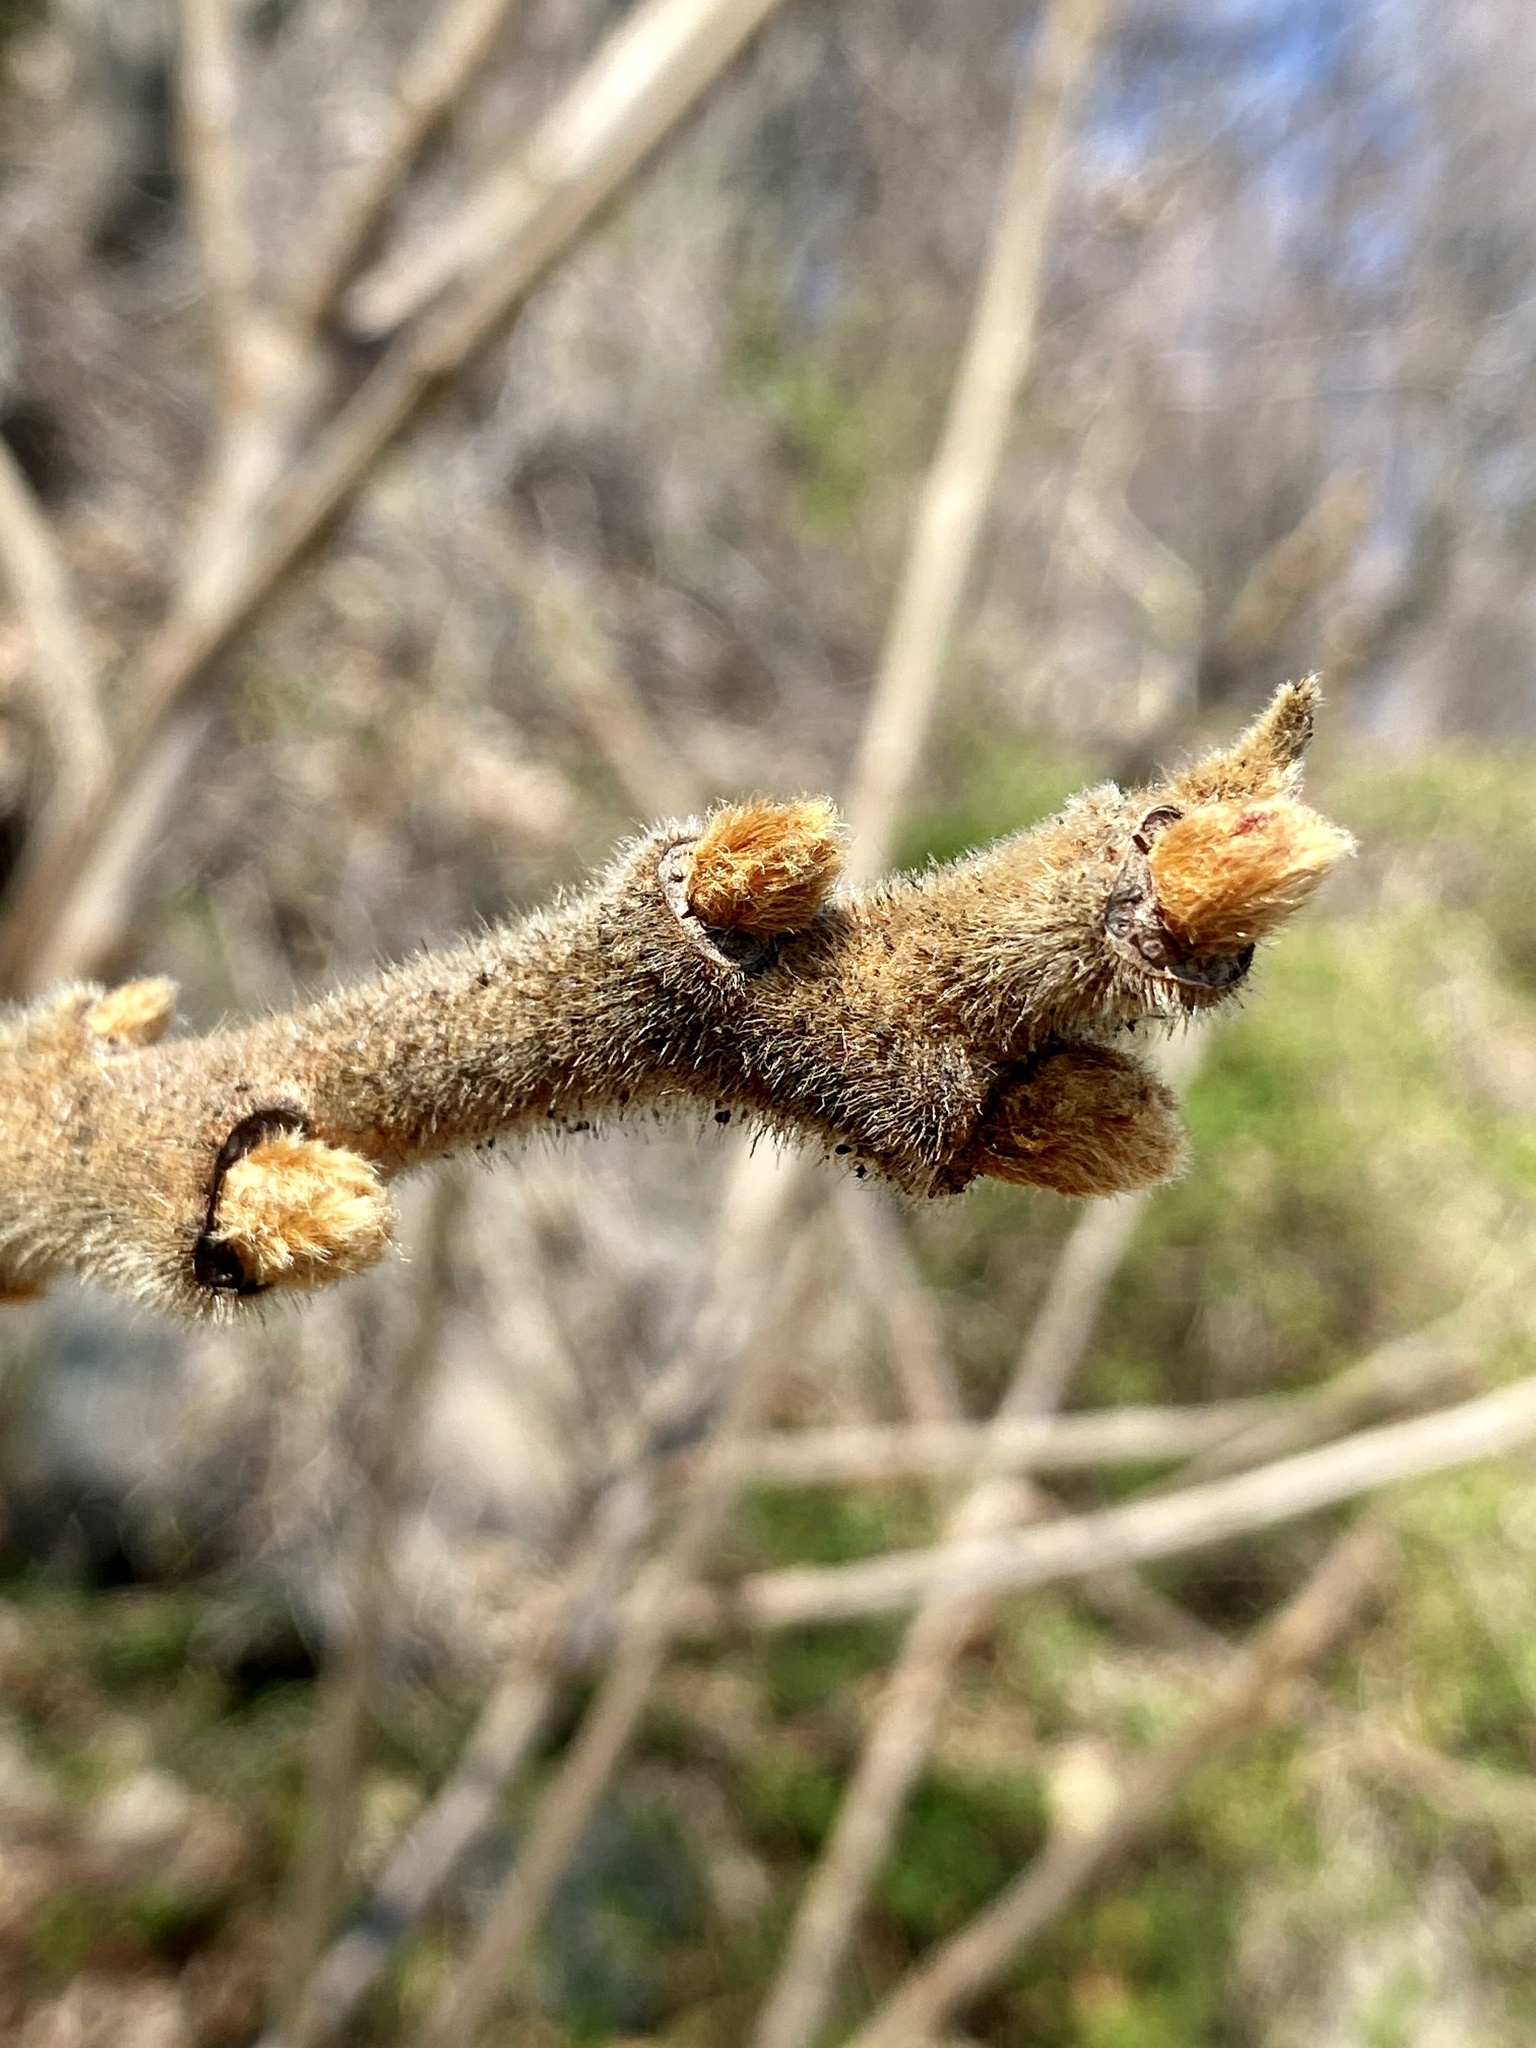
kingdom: Plantae
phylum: Tracheophyta
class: Magnoliopsida
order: Sapindales
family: Anacardiaceae
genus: Rhus
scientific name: Rhus typhina
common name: Staghorn sumac
